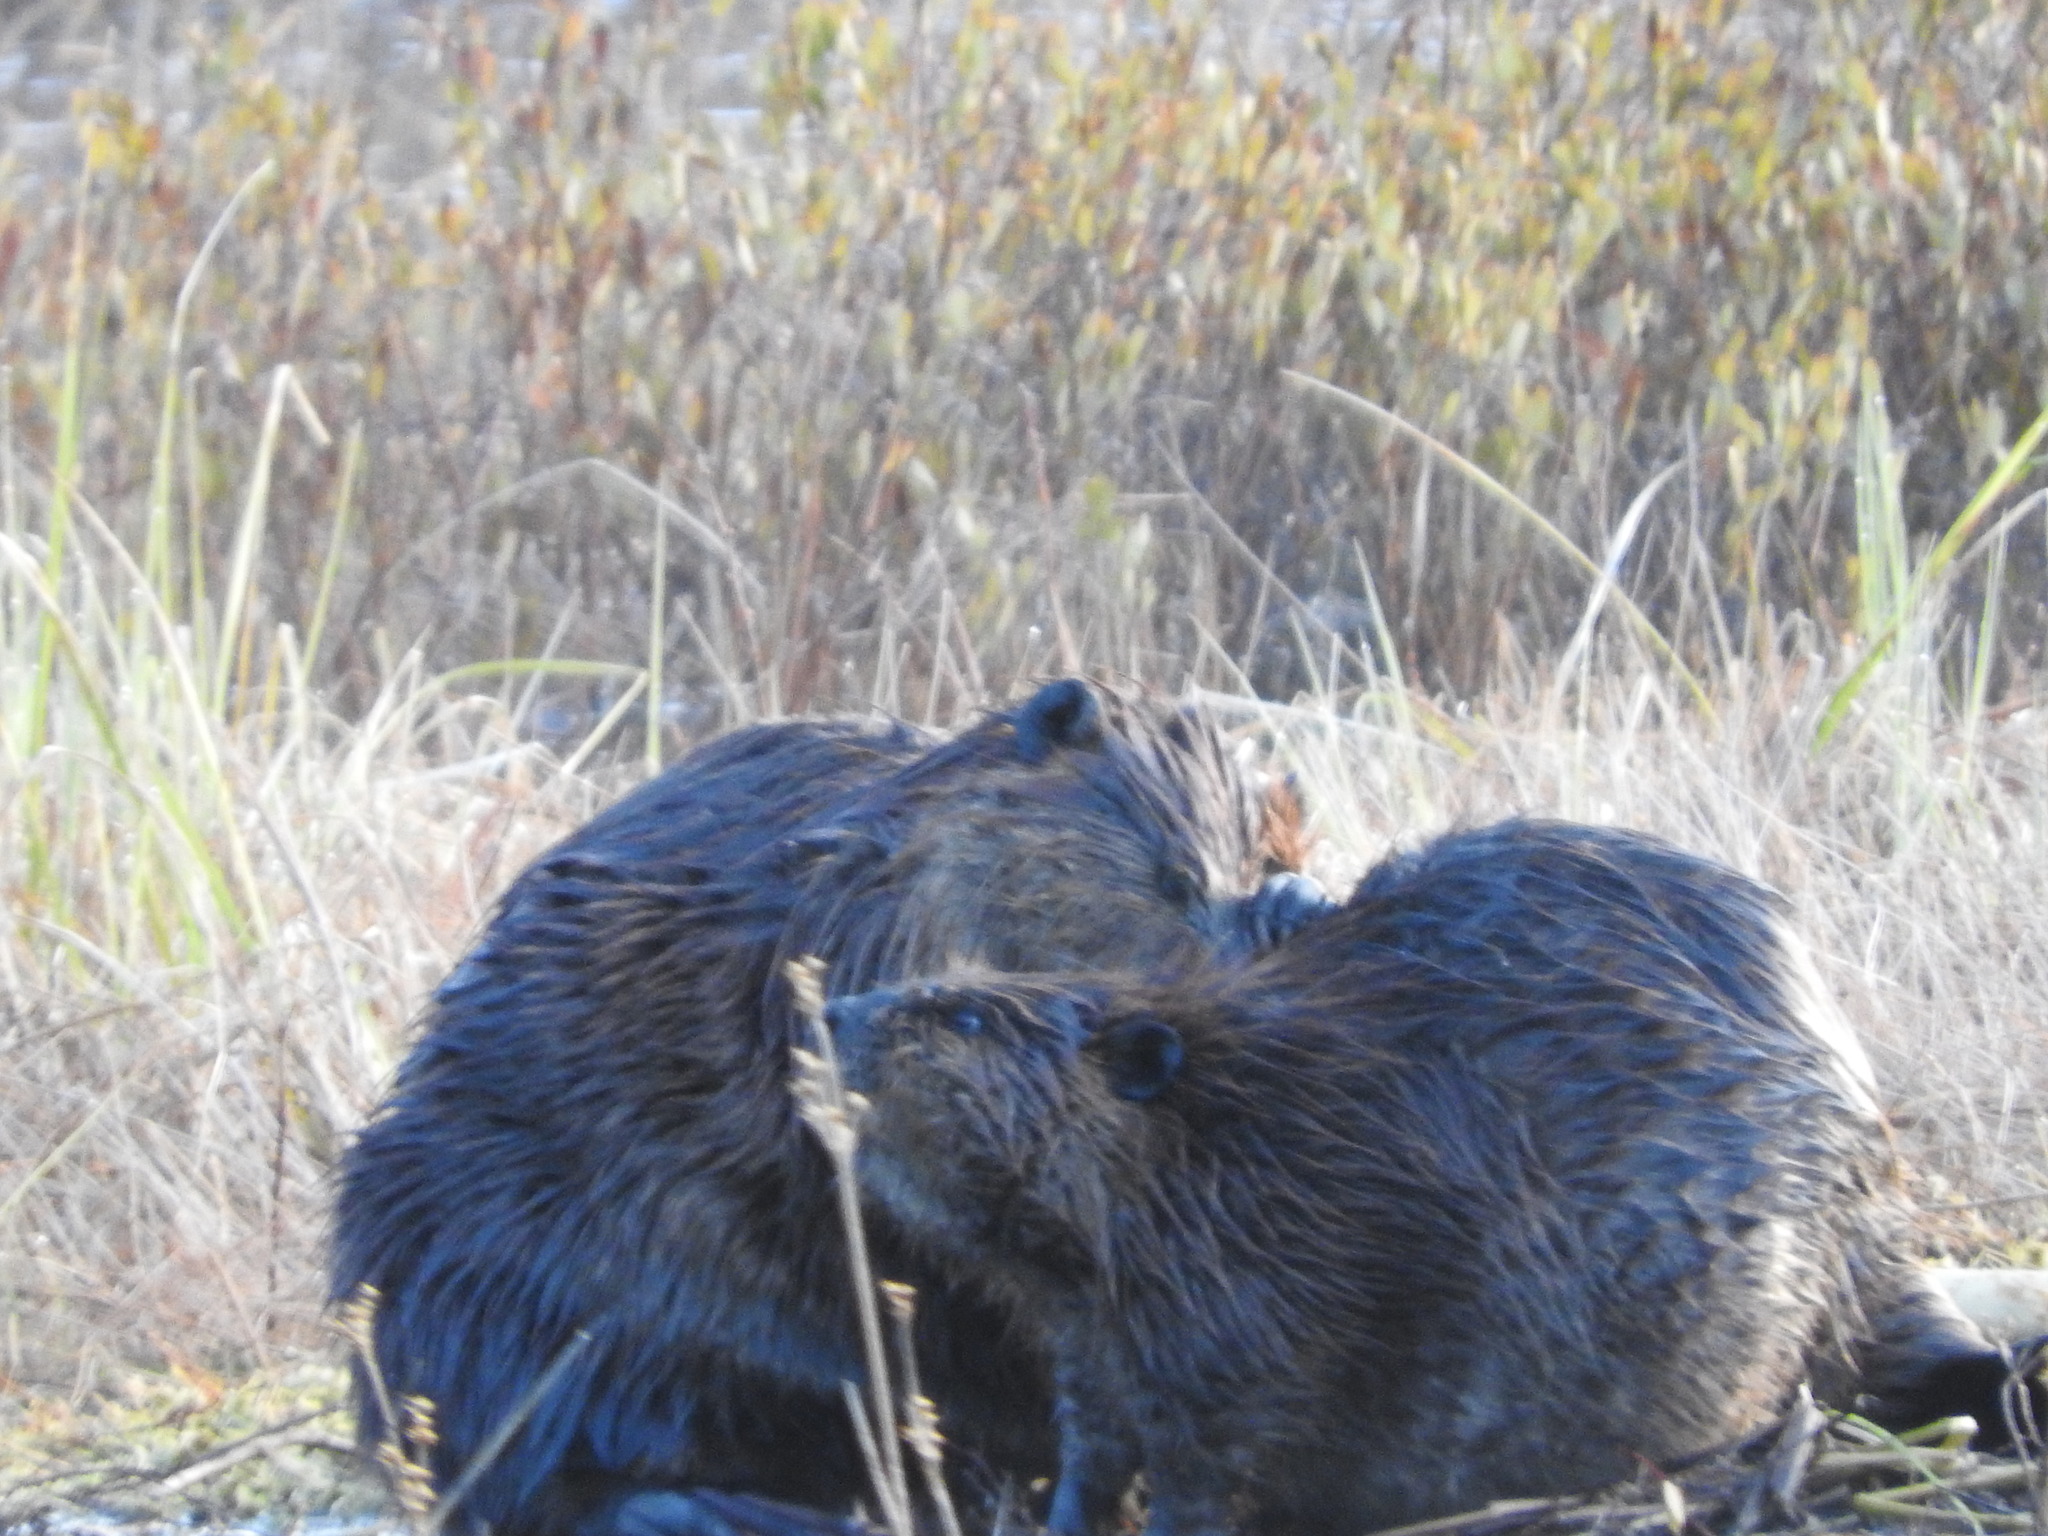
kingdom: Animalia
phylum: Chordata
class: Mammalia
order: Rodentia
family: Castoridae
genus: Castor
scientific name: Castor canadensis
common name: American beaver
